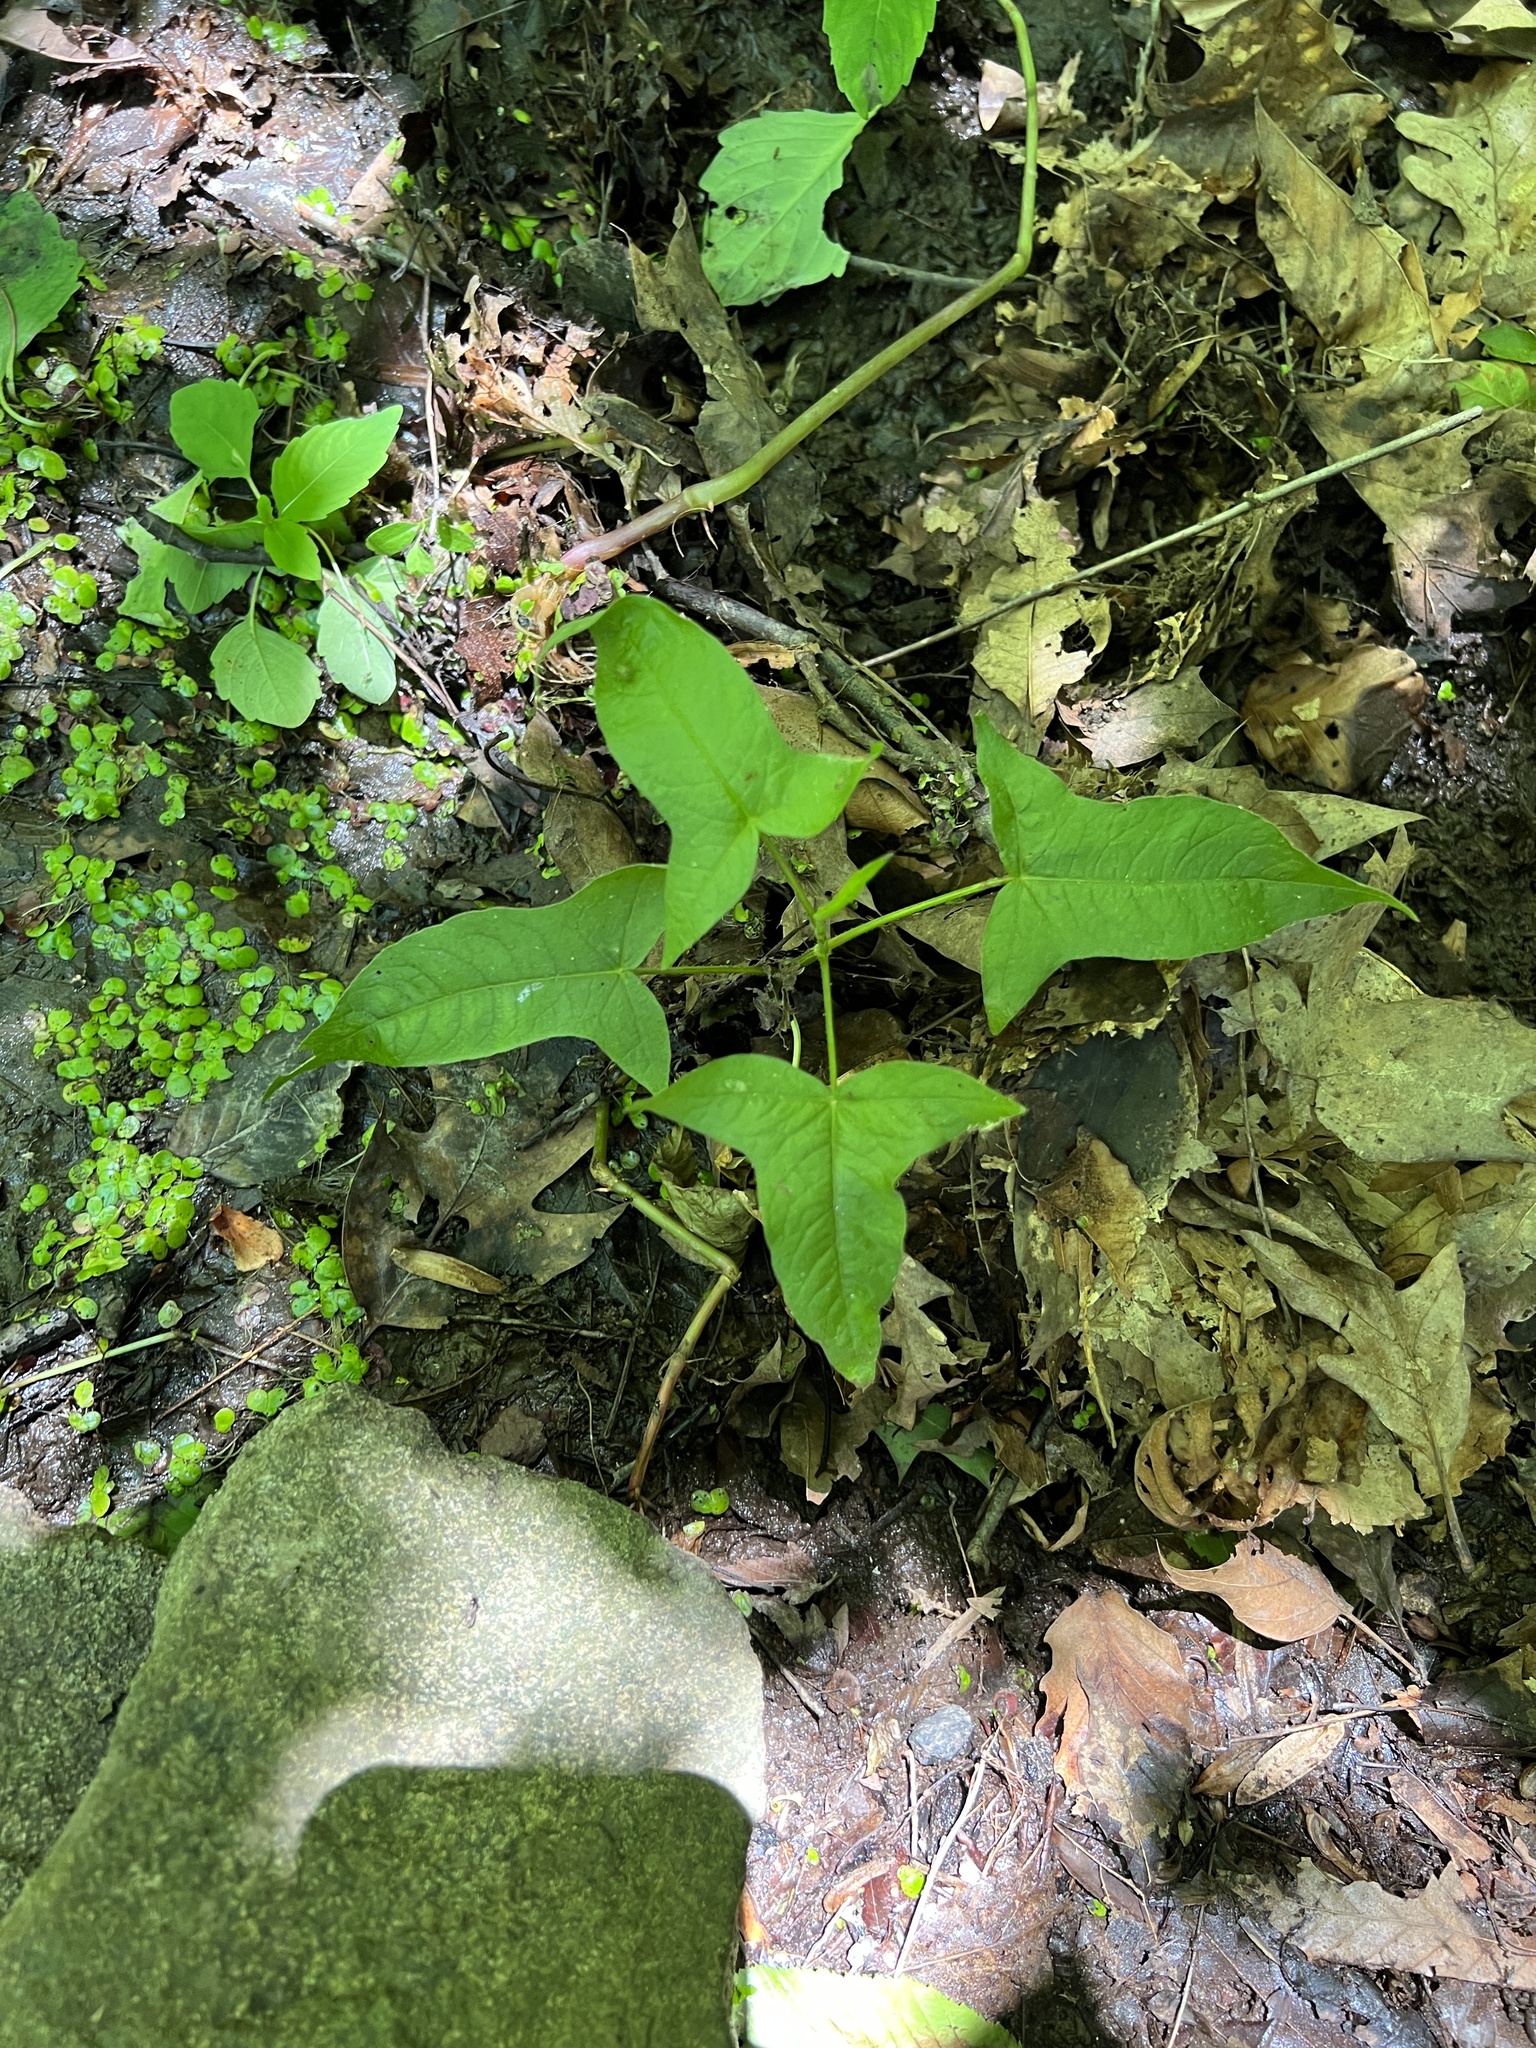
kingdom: Plantae
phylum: Tracheophyta
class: Magnoliopsida
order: Caryophyllales
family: Polygonaceae
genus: Persicaria
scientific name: Persicaria arifolia
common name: Halberd-leaved tear-thumb
